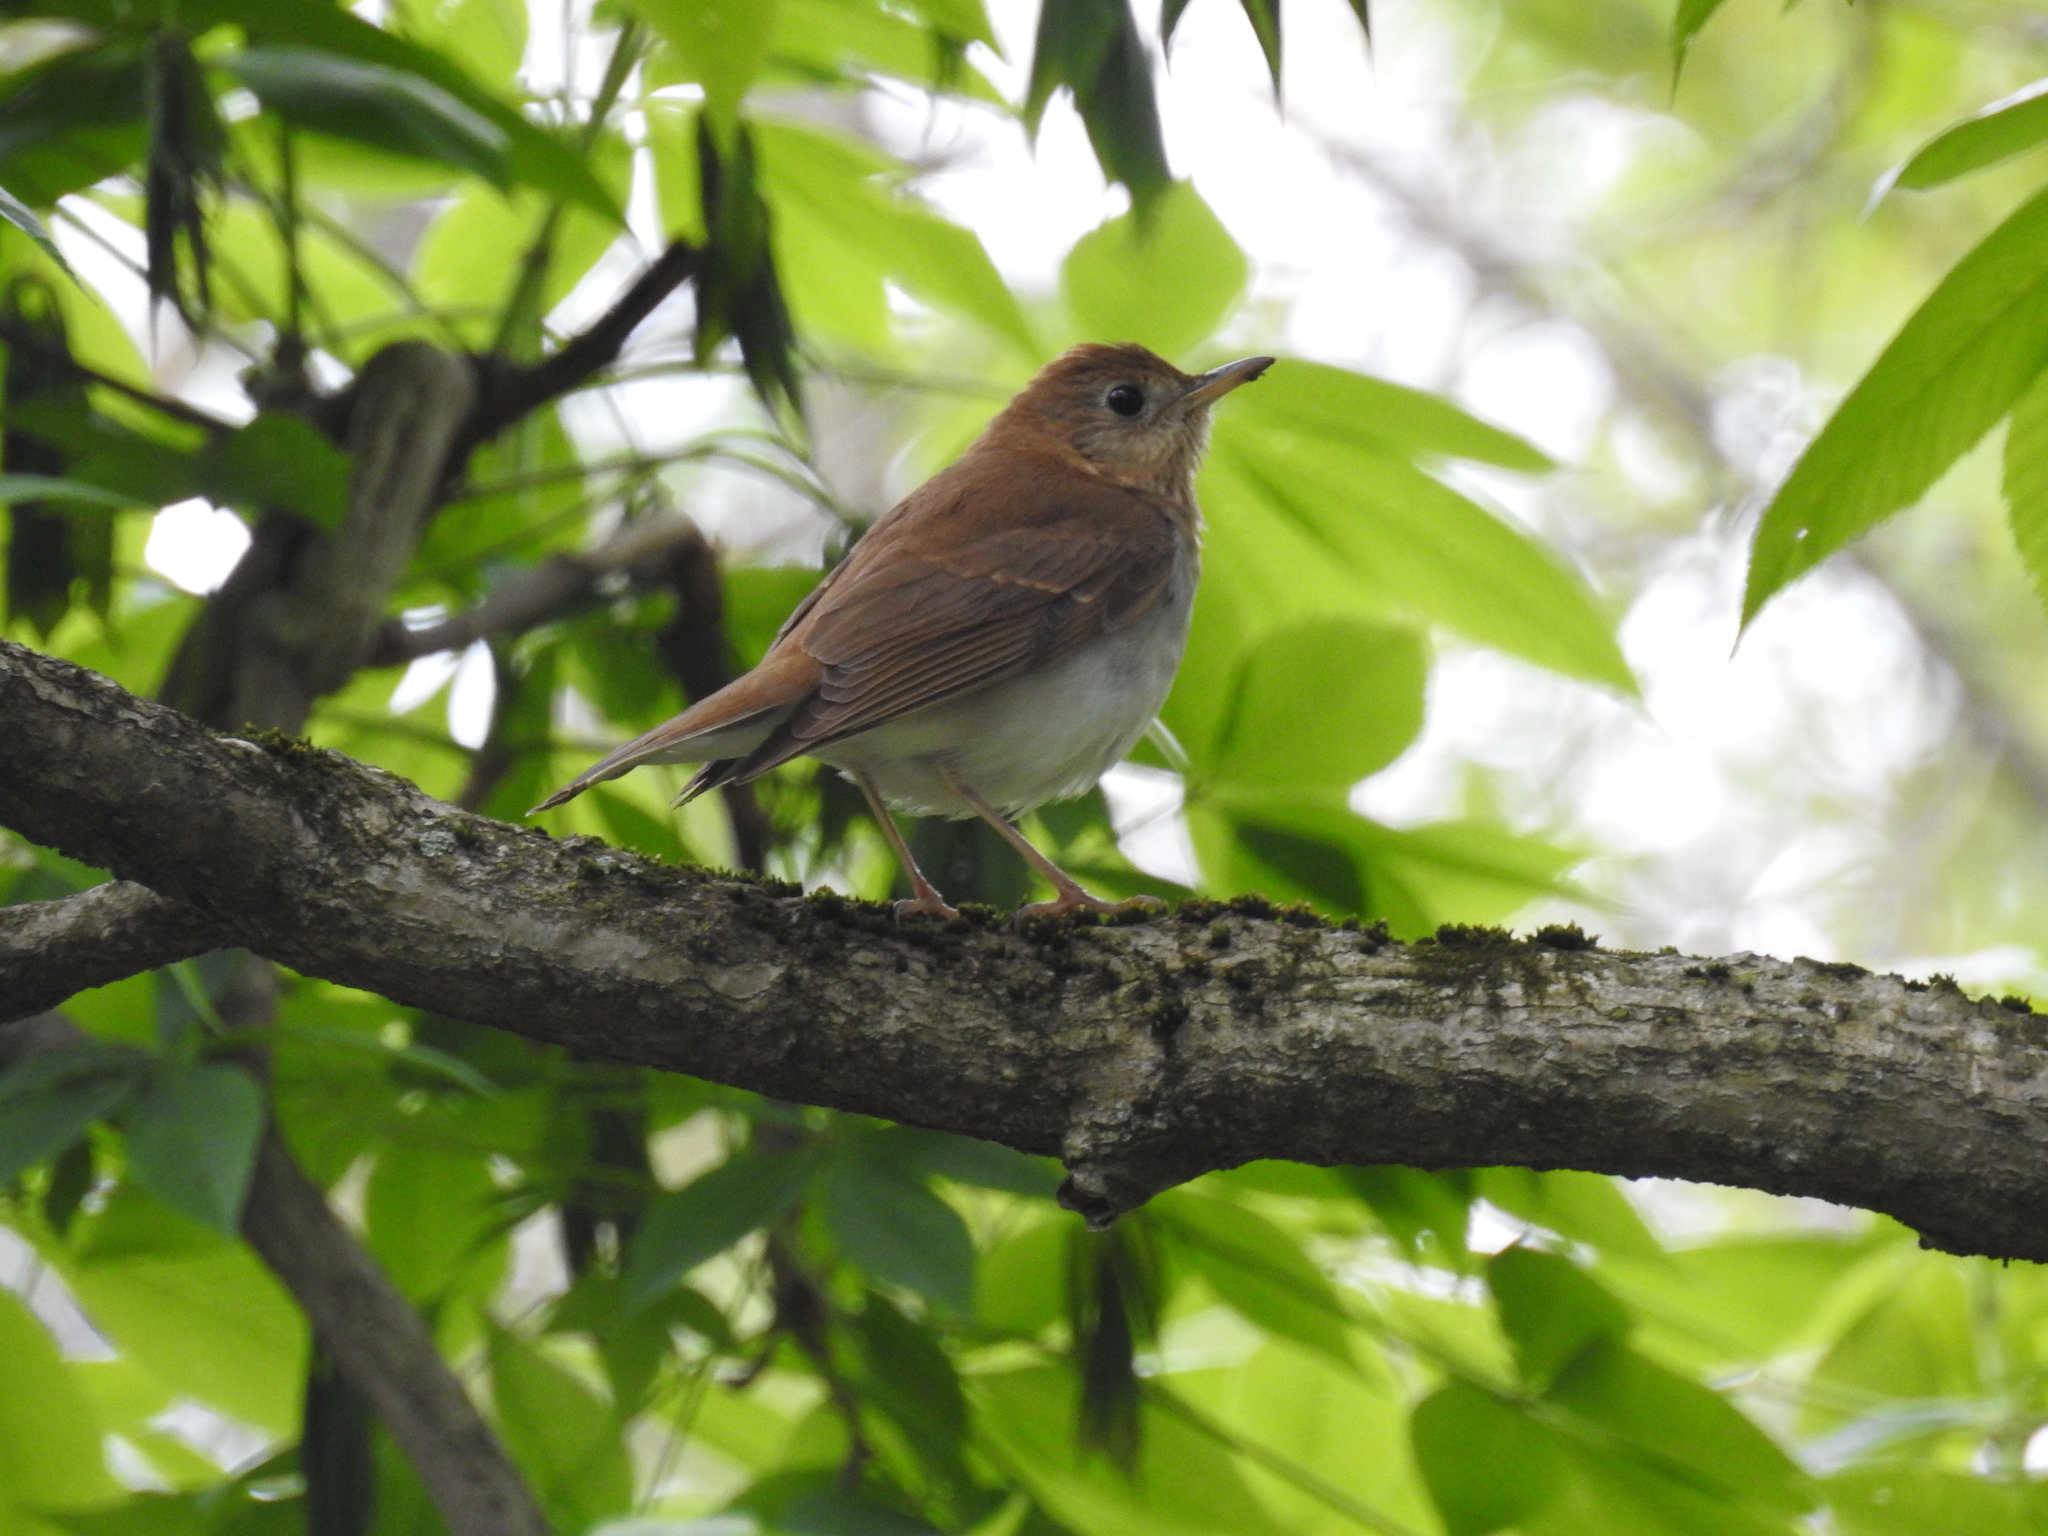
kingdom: Animalia
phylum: Chordata
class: Aves
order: Passeriformes
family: Turdidae
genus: Catharus
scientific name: Catharus fuscescens
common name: Veery
